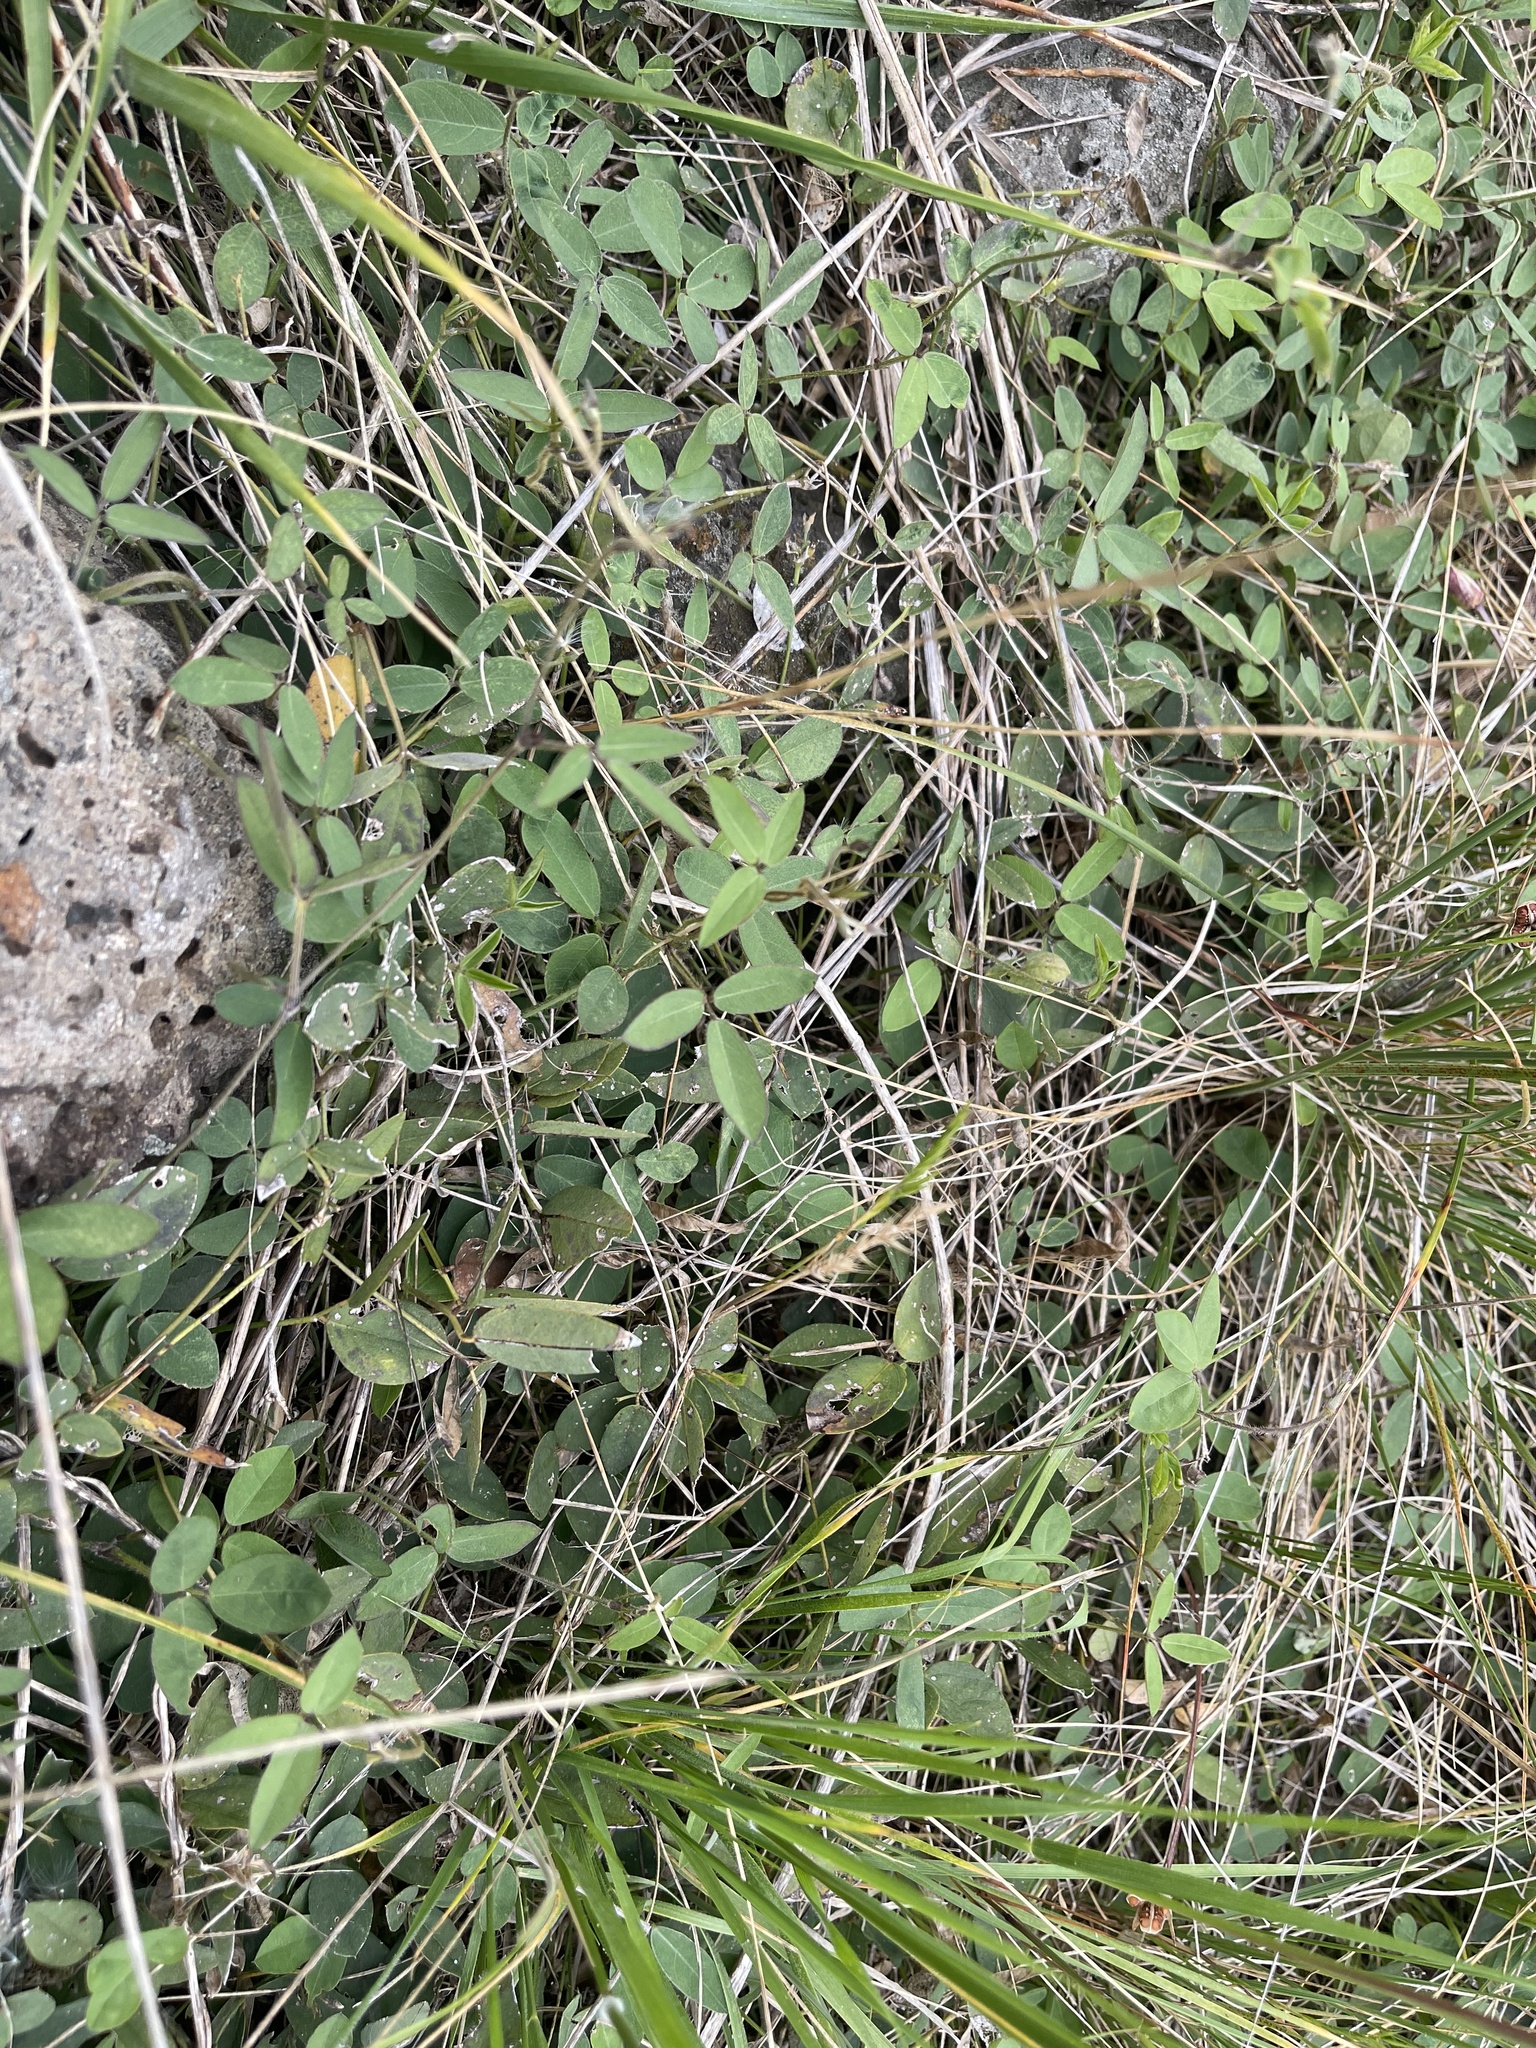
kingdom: Plantae
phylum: Tracheophyta
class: Magnoliopsida
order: Fabales
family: Fabaceae
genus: Glycine
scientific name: Glycine tabacina
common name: Pea glycine
